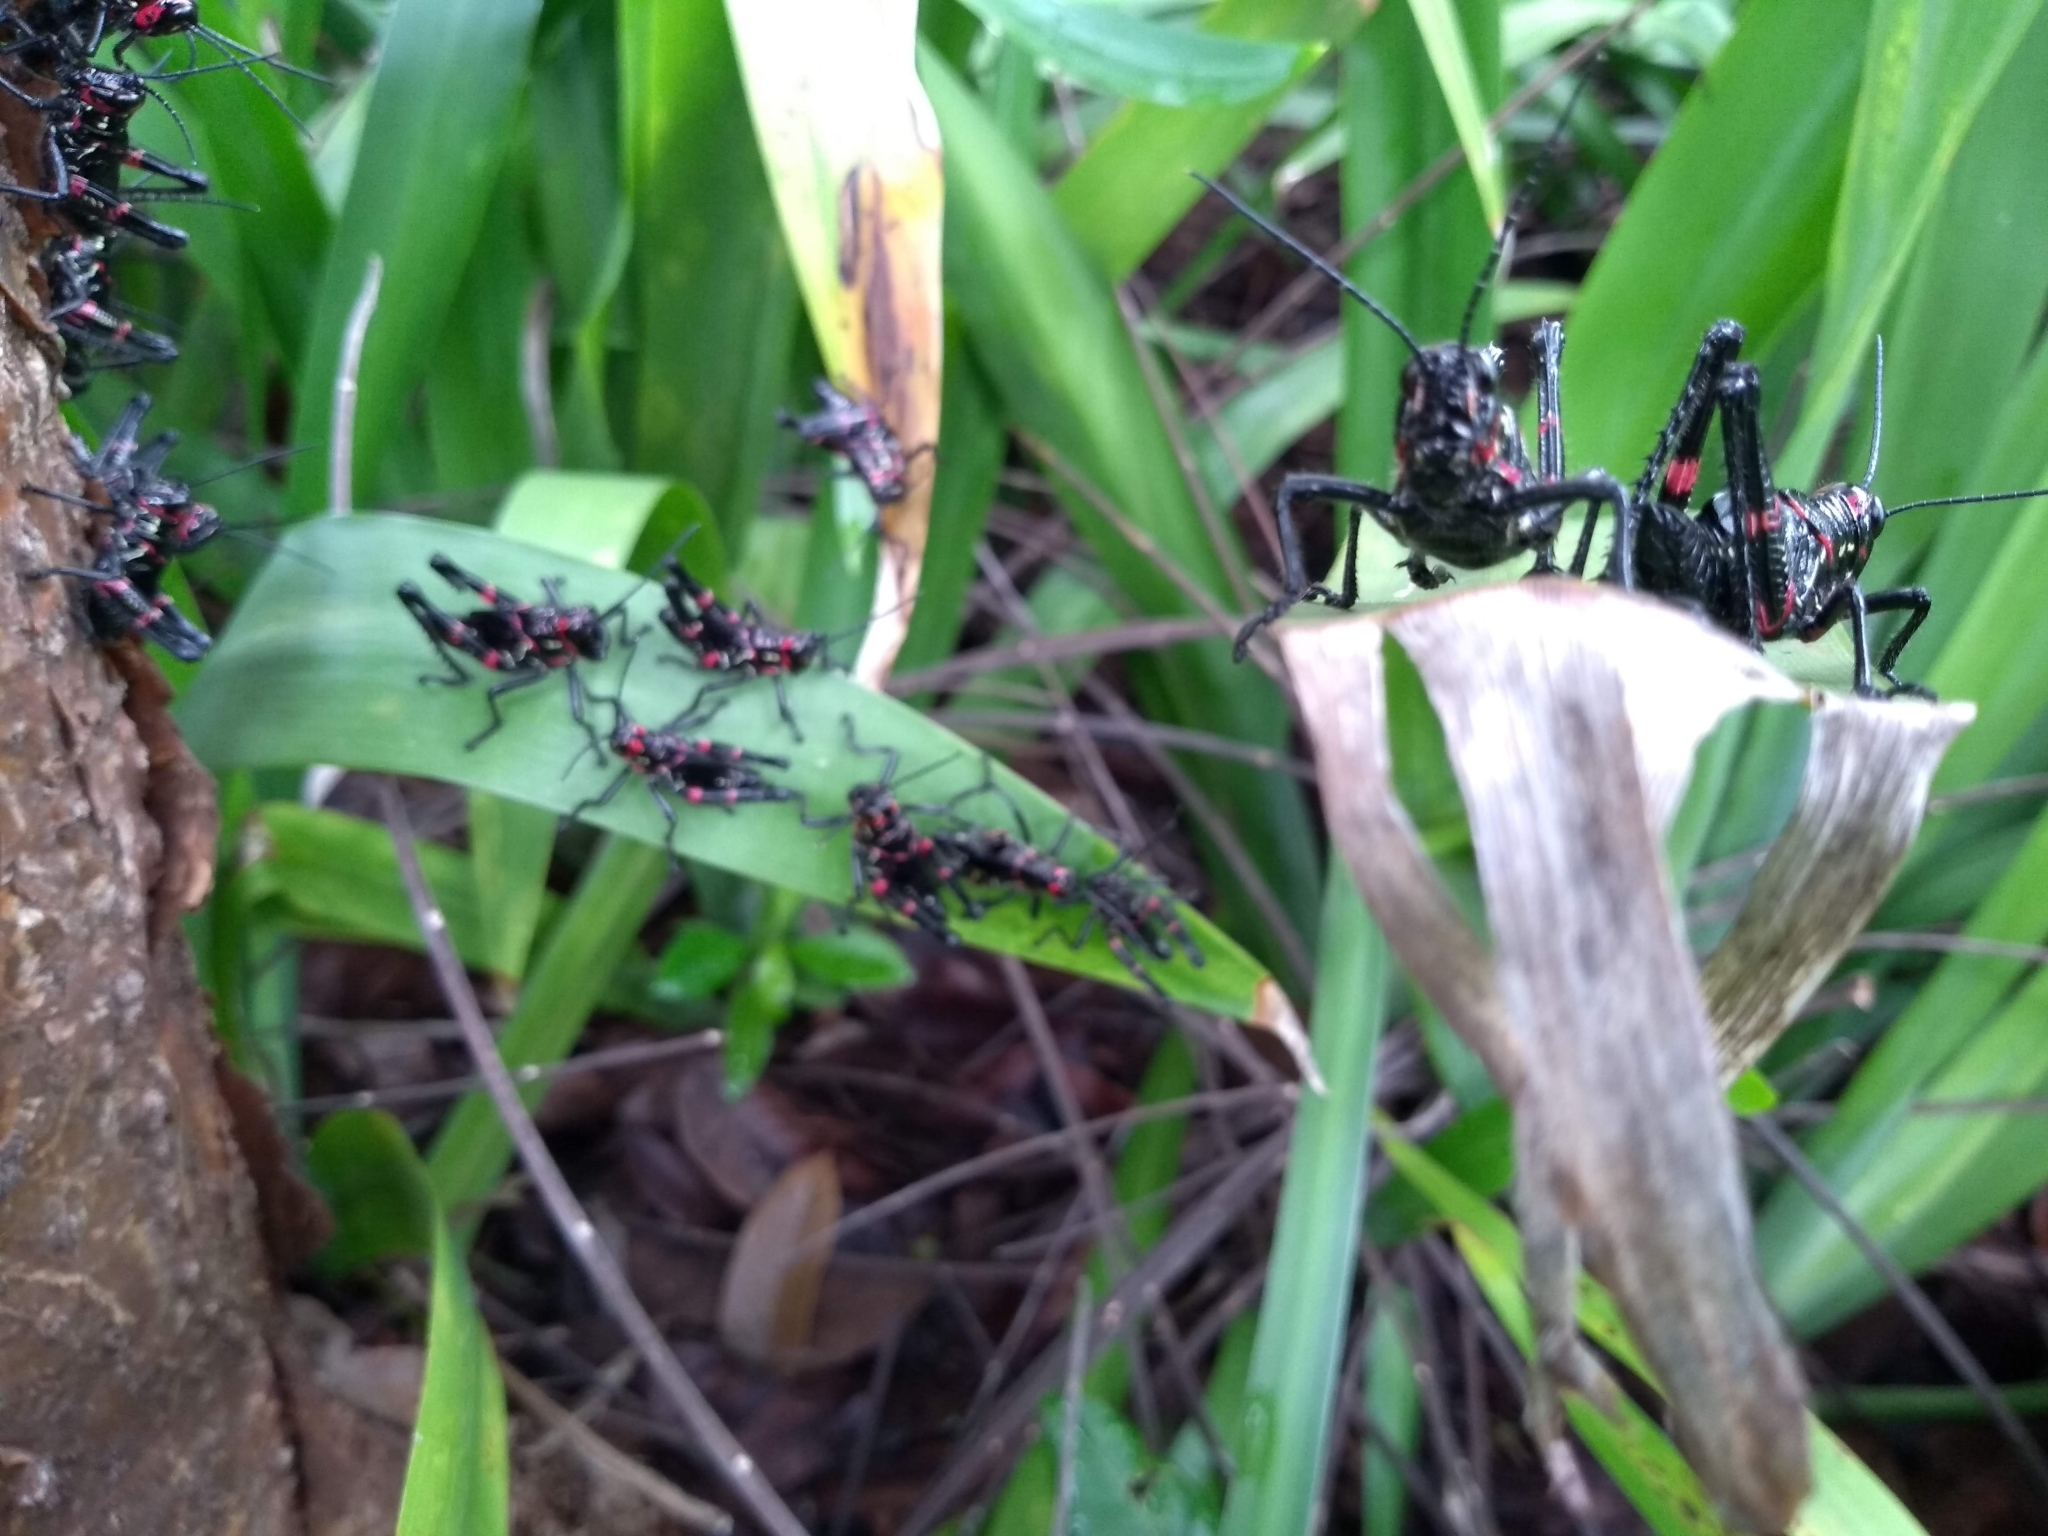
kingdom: Animalia
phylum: Arthropoda
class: Insecta
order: Orthoptera
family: Romaleidae
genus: Chromacris
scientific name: Chromacris speciosa
